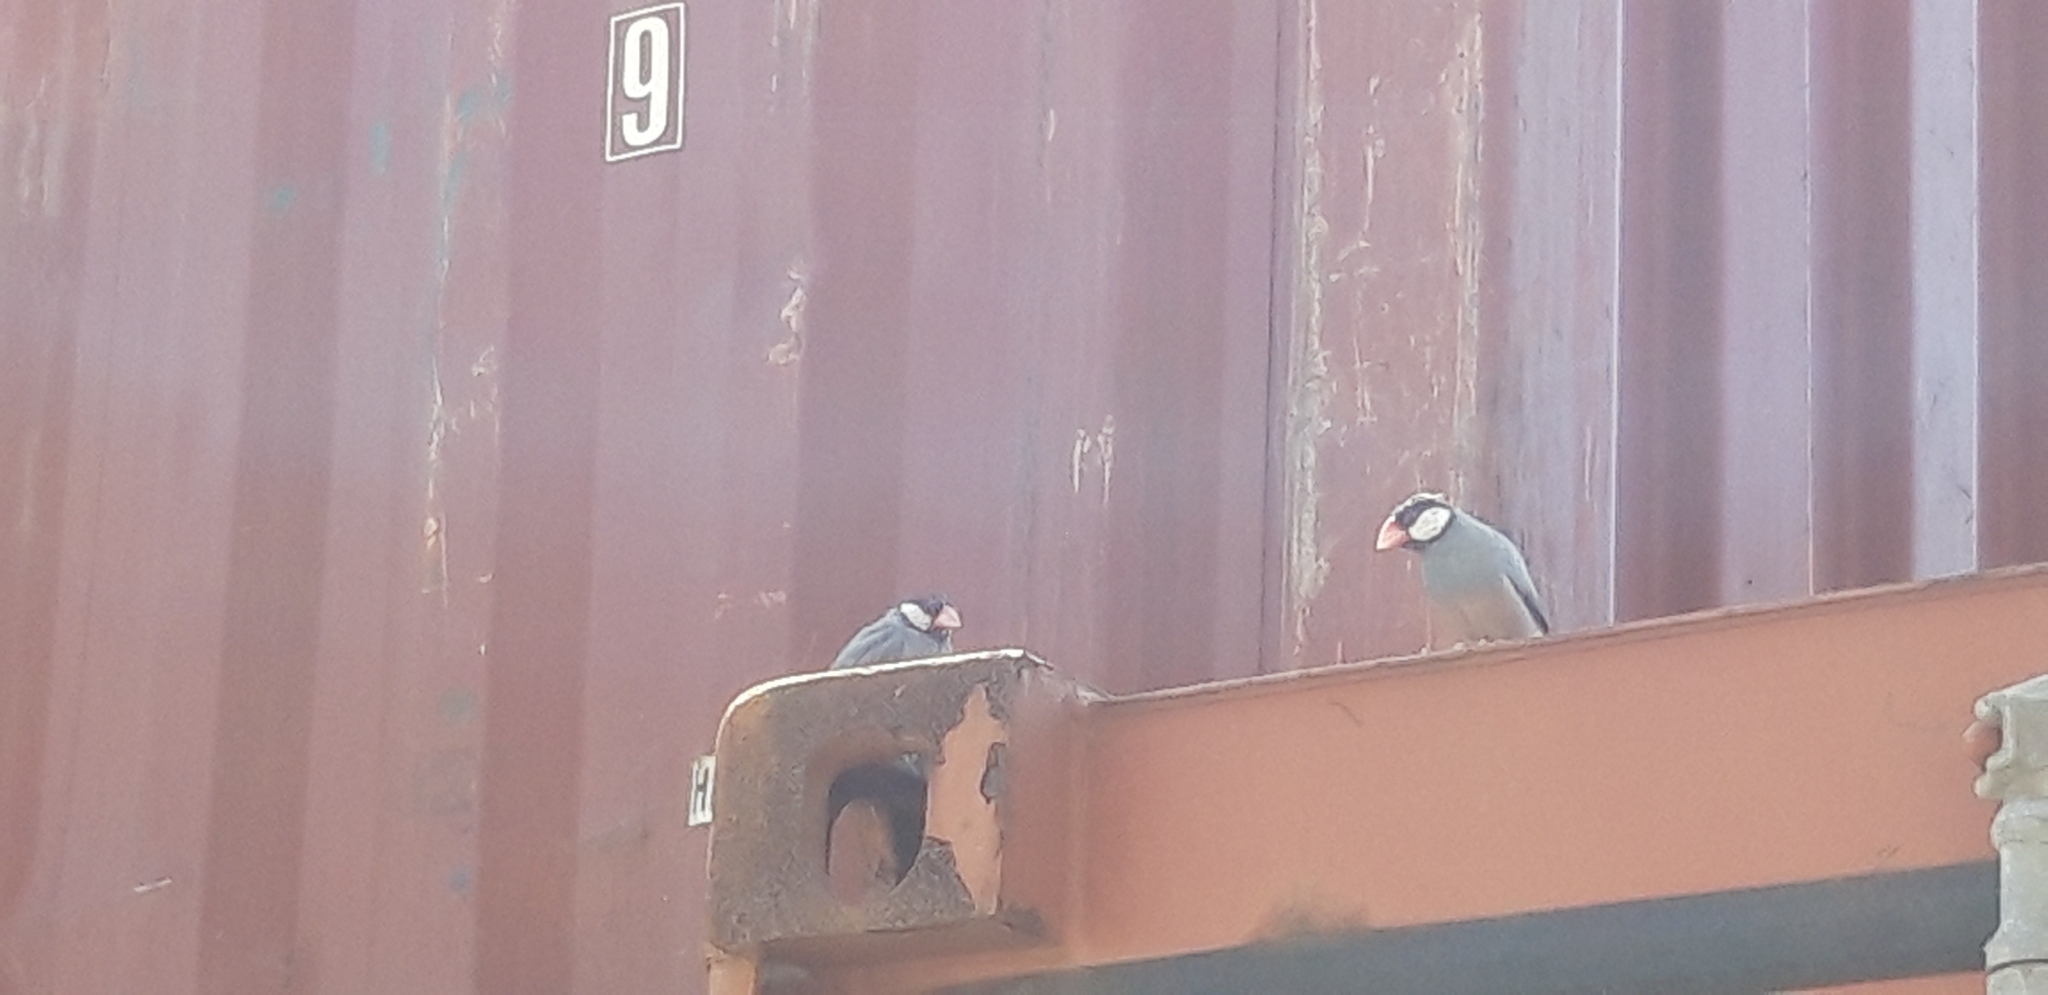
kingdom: Animalia
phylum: Chordata
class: Aves
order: Passeriformes
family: Estrildidae
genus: Lonchura
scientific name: Lonchura oryzivora
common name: Java sparrow
